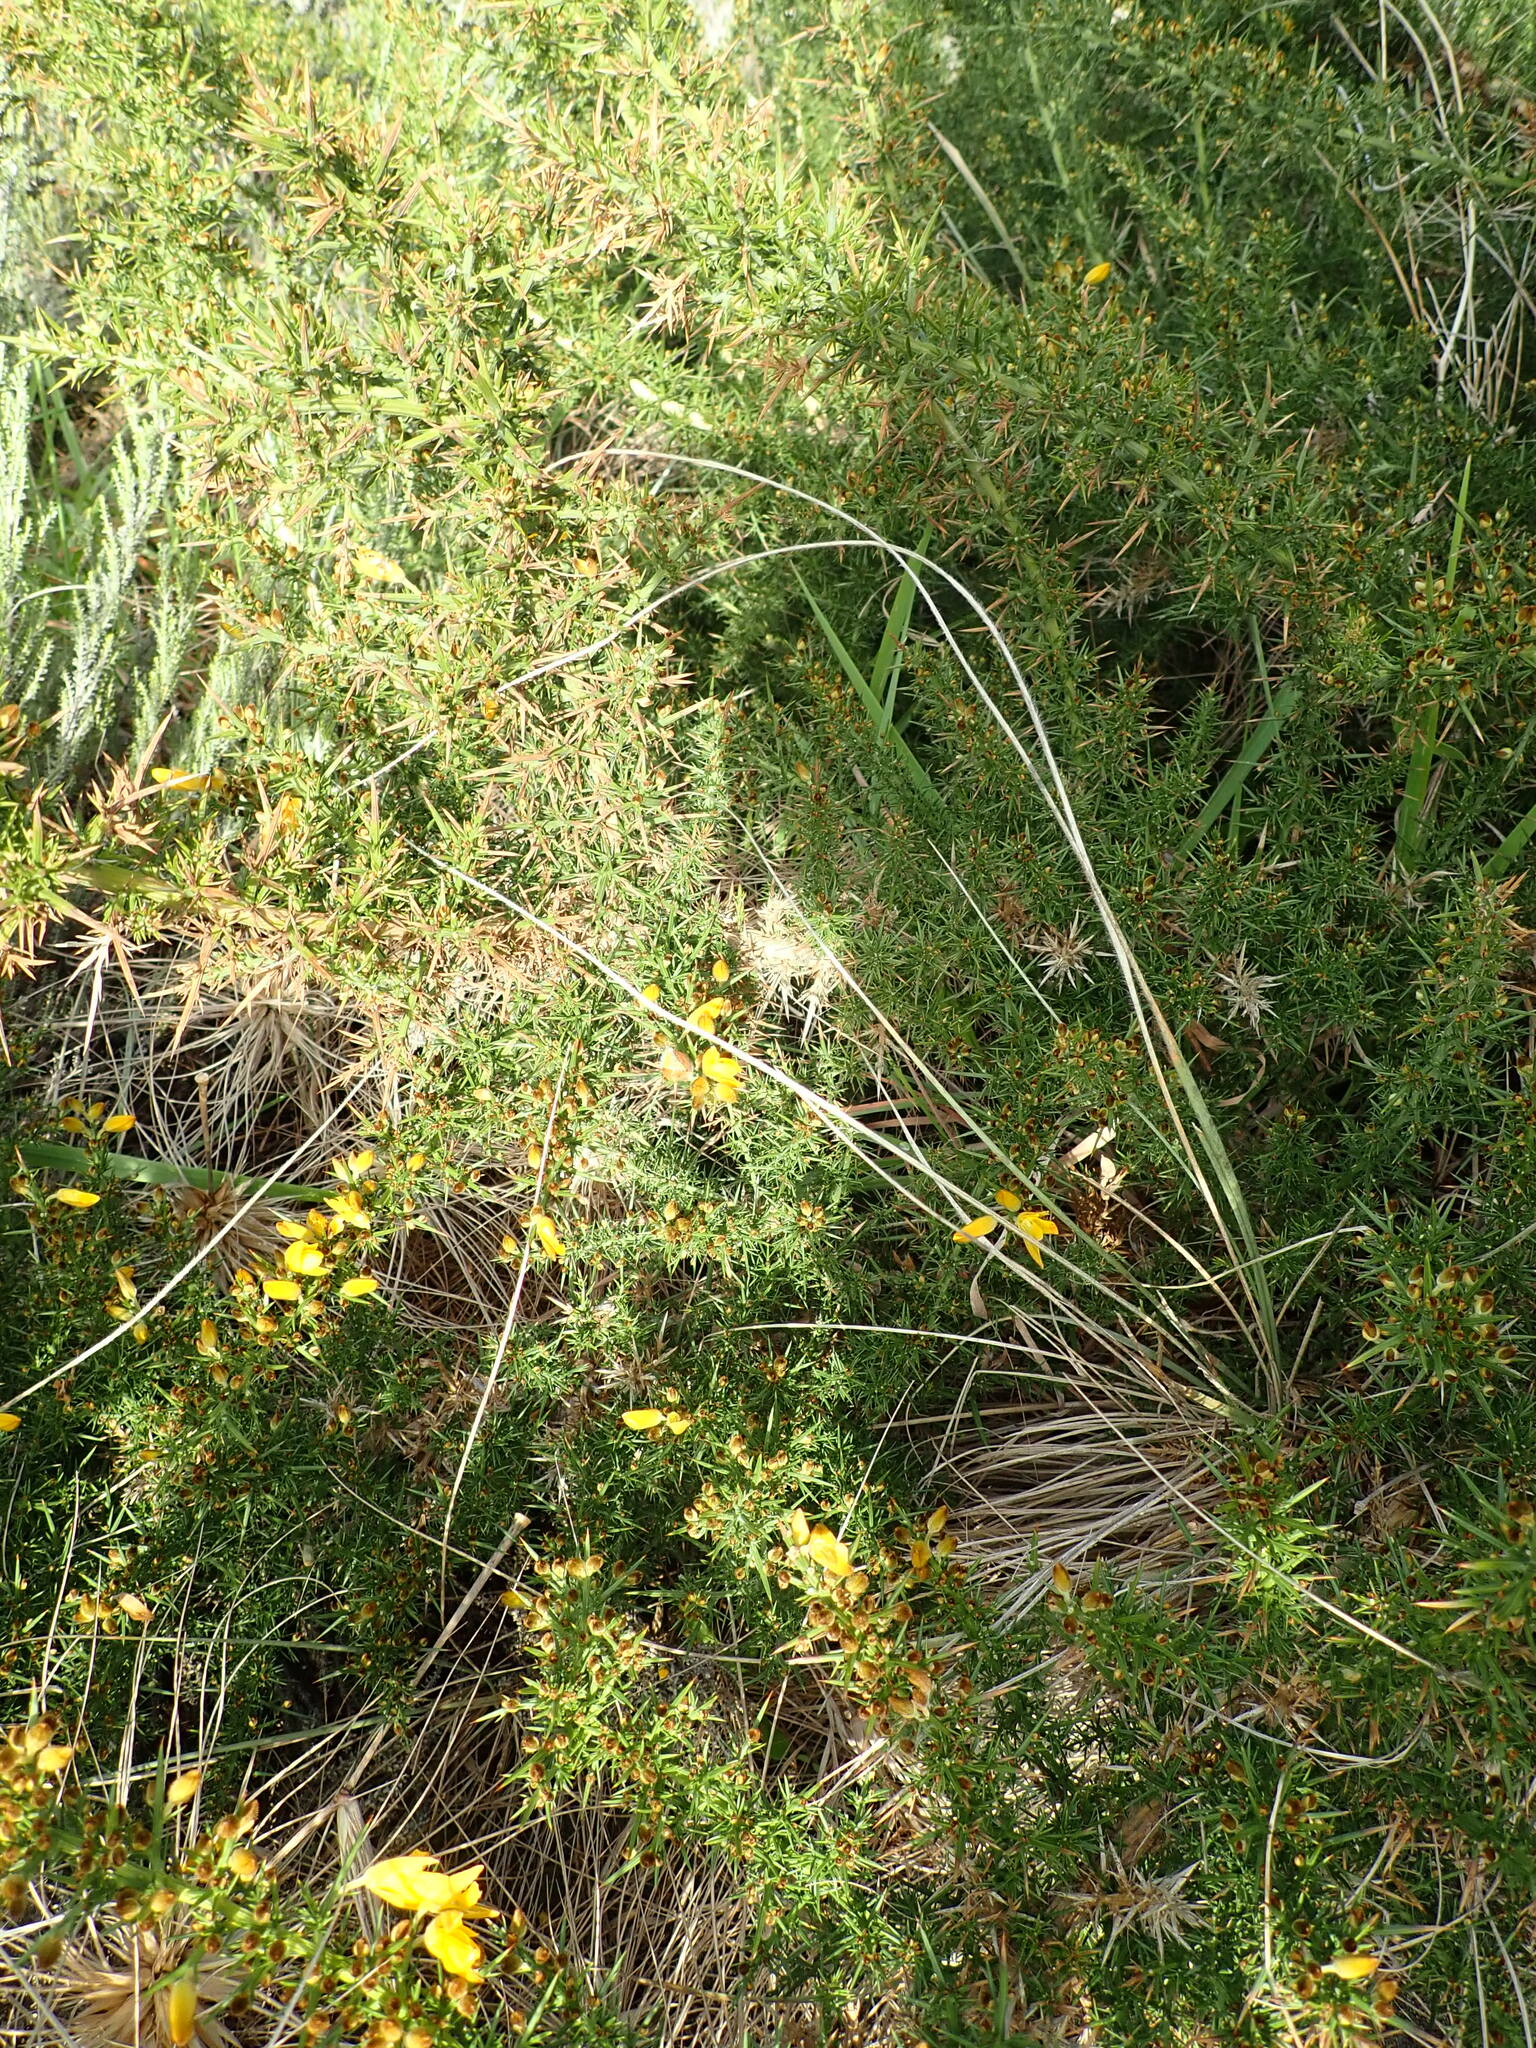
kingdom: Plantae
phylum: Tracheophyta
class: Magnoliopsida
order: Fabales
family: Fabaceae
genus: Ulex
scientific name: Ulex europaeus
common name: Common gorse
